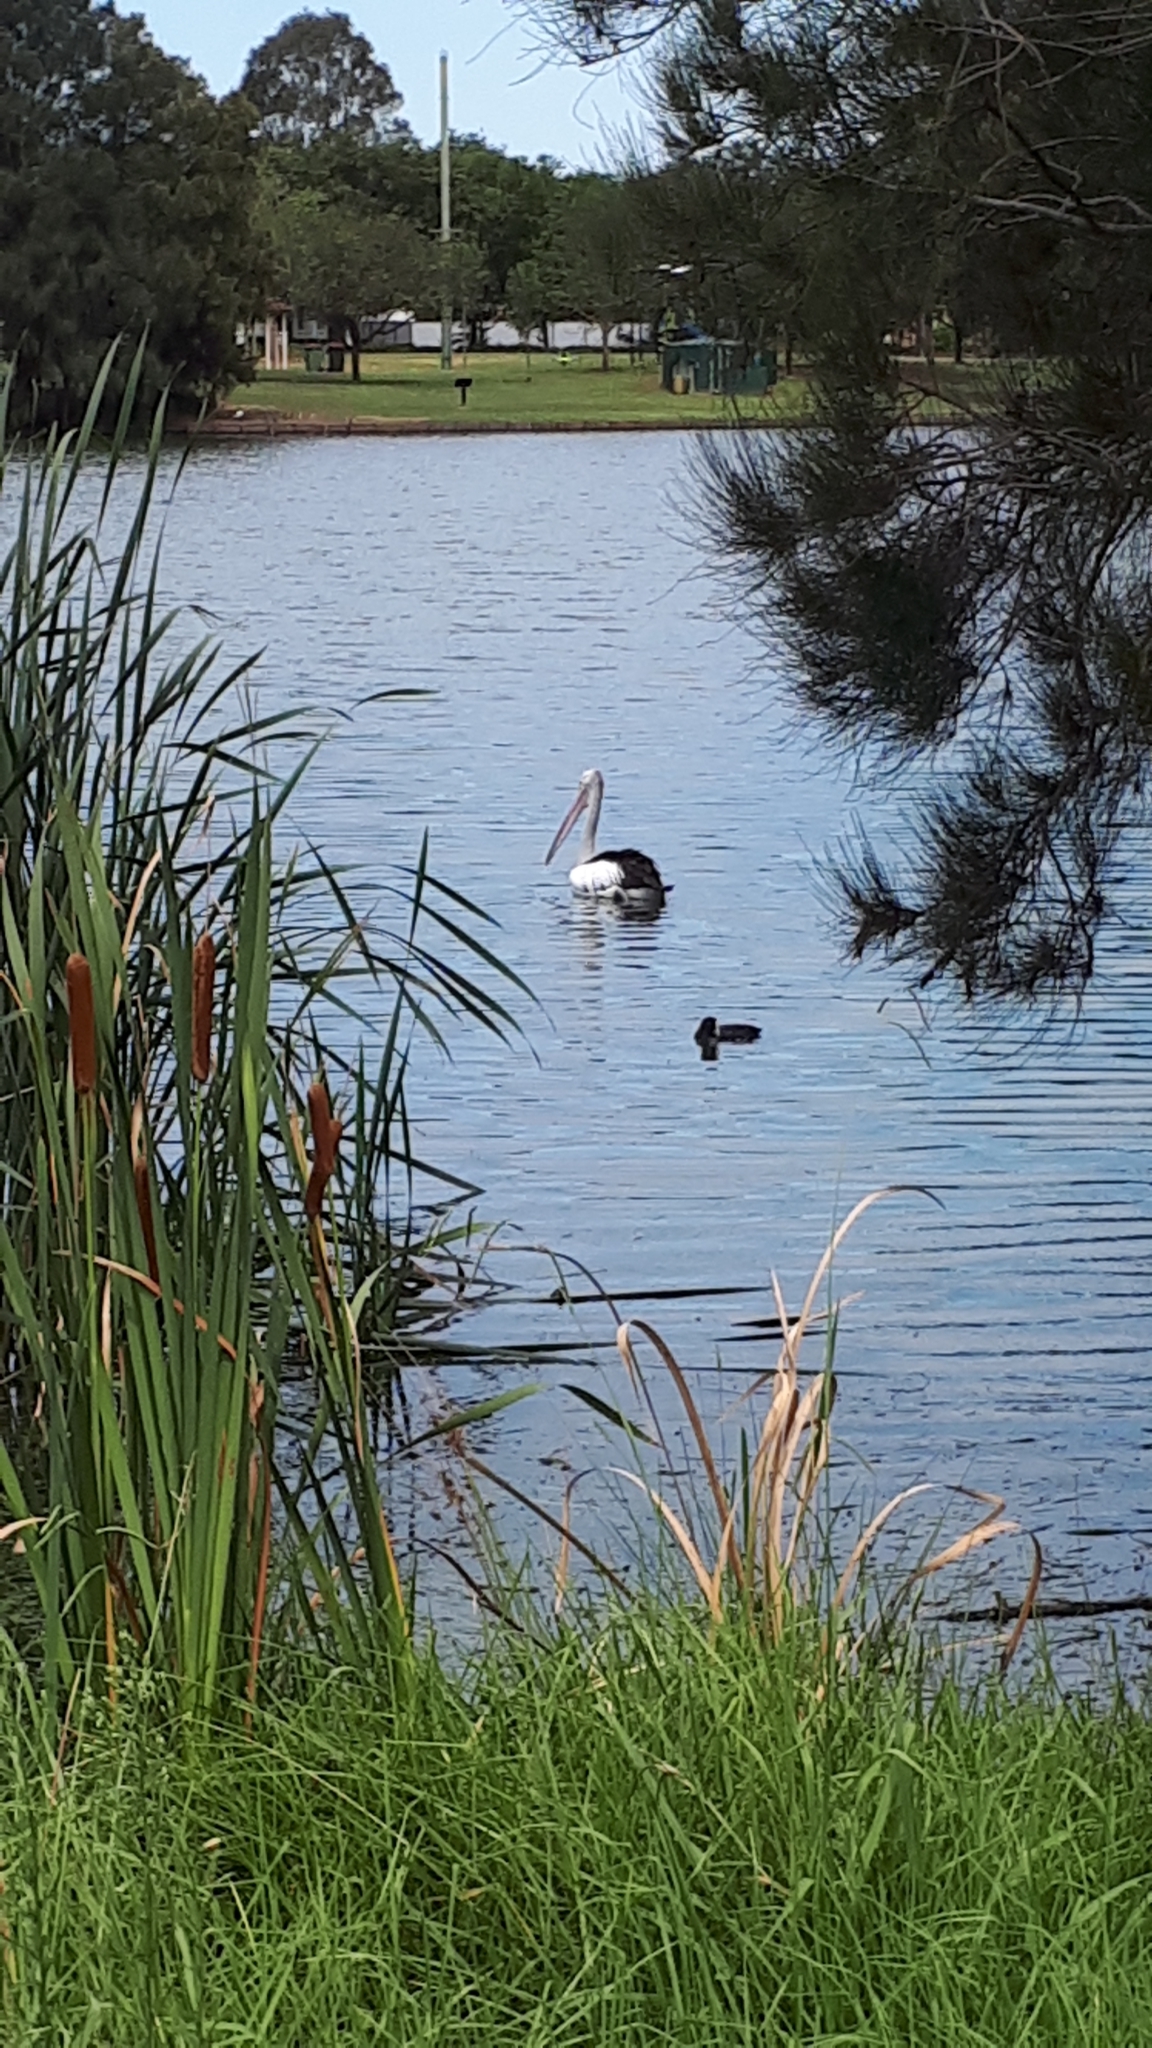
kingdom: Animalia
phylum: Chordata
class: Aves
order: Pelecaniformes
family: Pelecanidae
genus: Pelecanus
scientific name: Pelecanus conspicillatus
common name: Australian pelican
